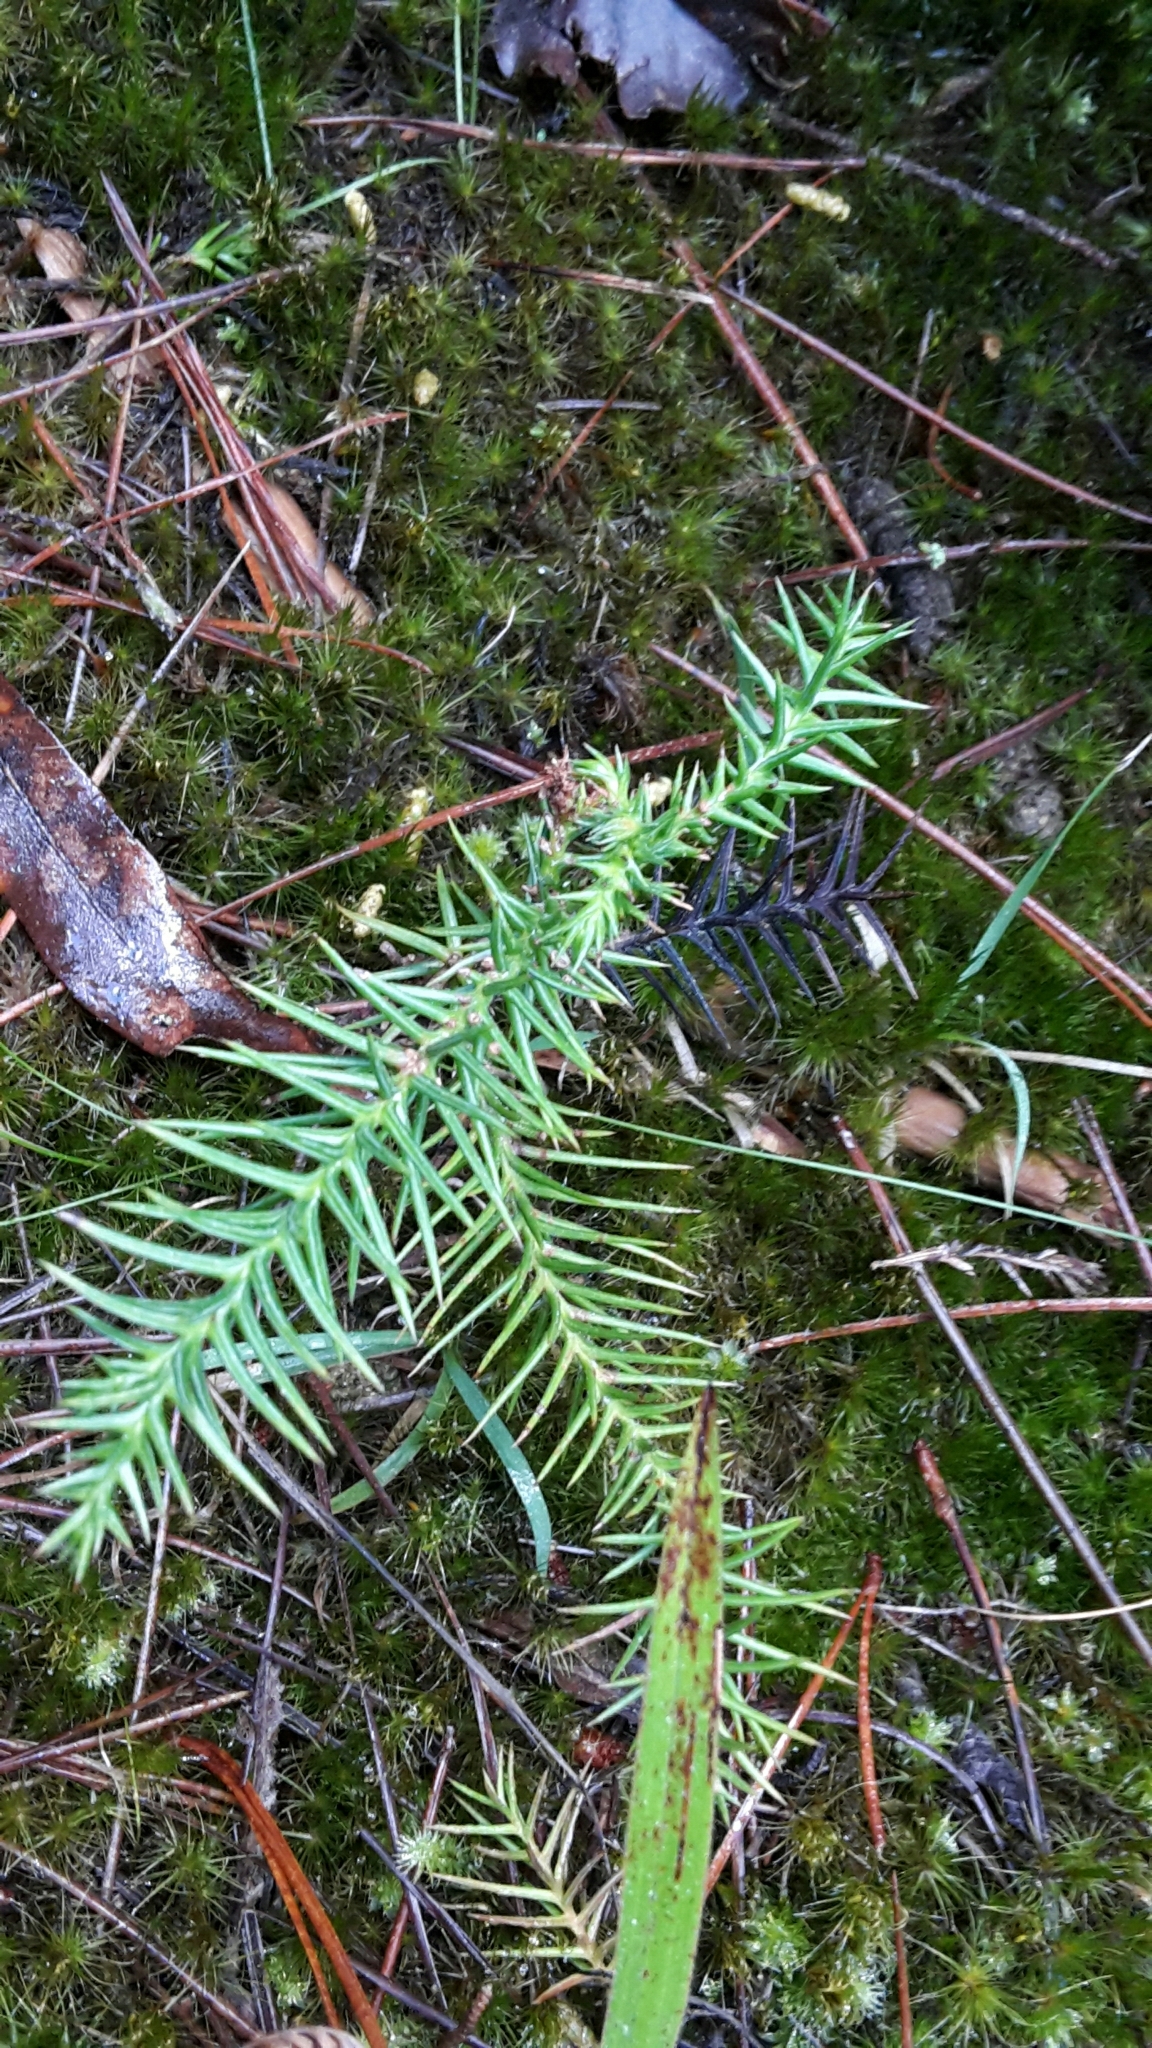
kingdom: Plantae
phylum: Tracheophyta
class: Pinopsida
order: Pinales
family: Cupressaceae
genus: Cryptomeria
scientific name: Cryptomeria japonica
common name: Japanese cedar
